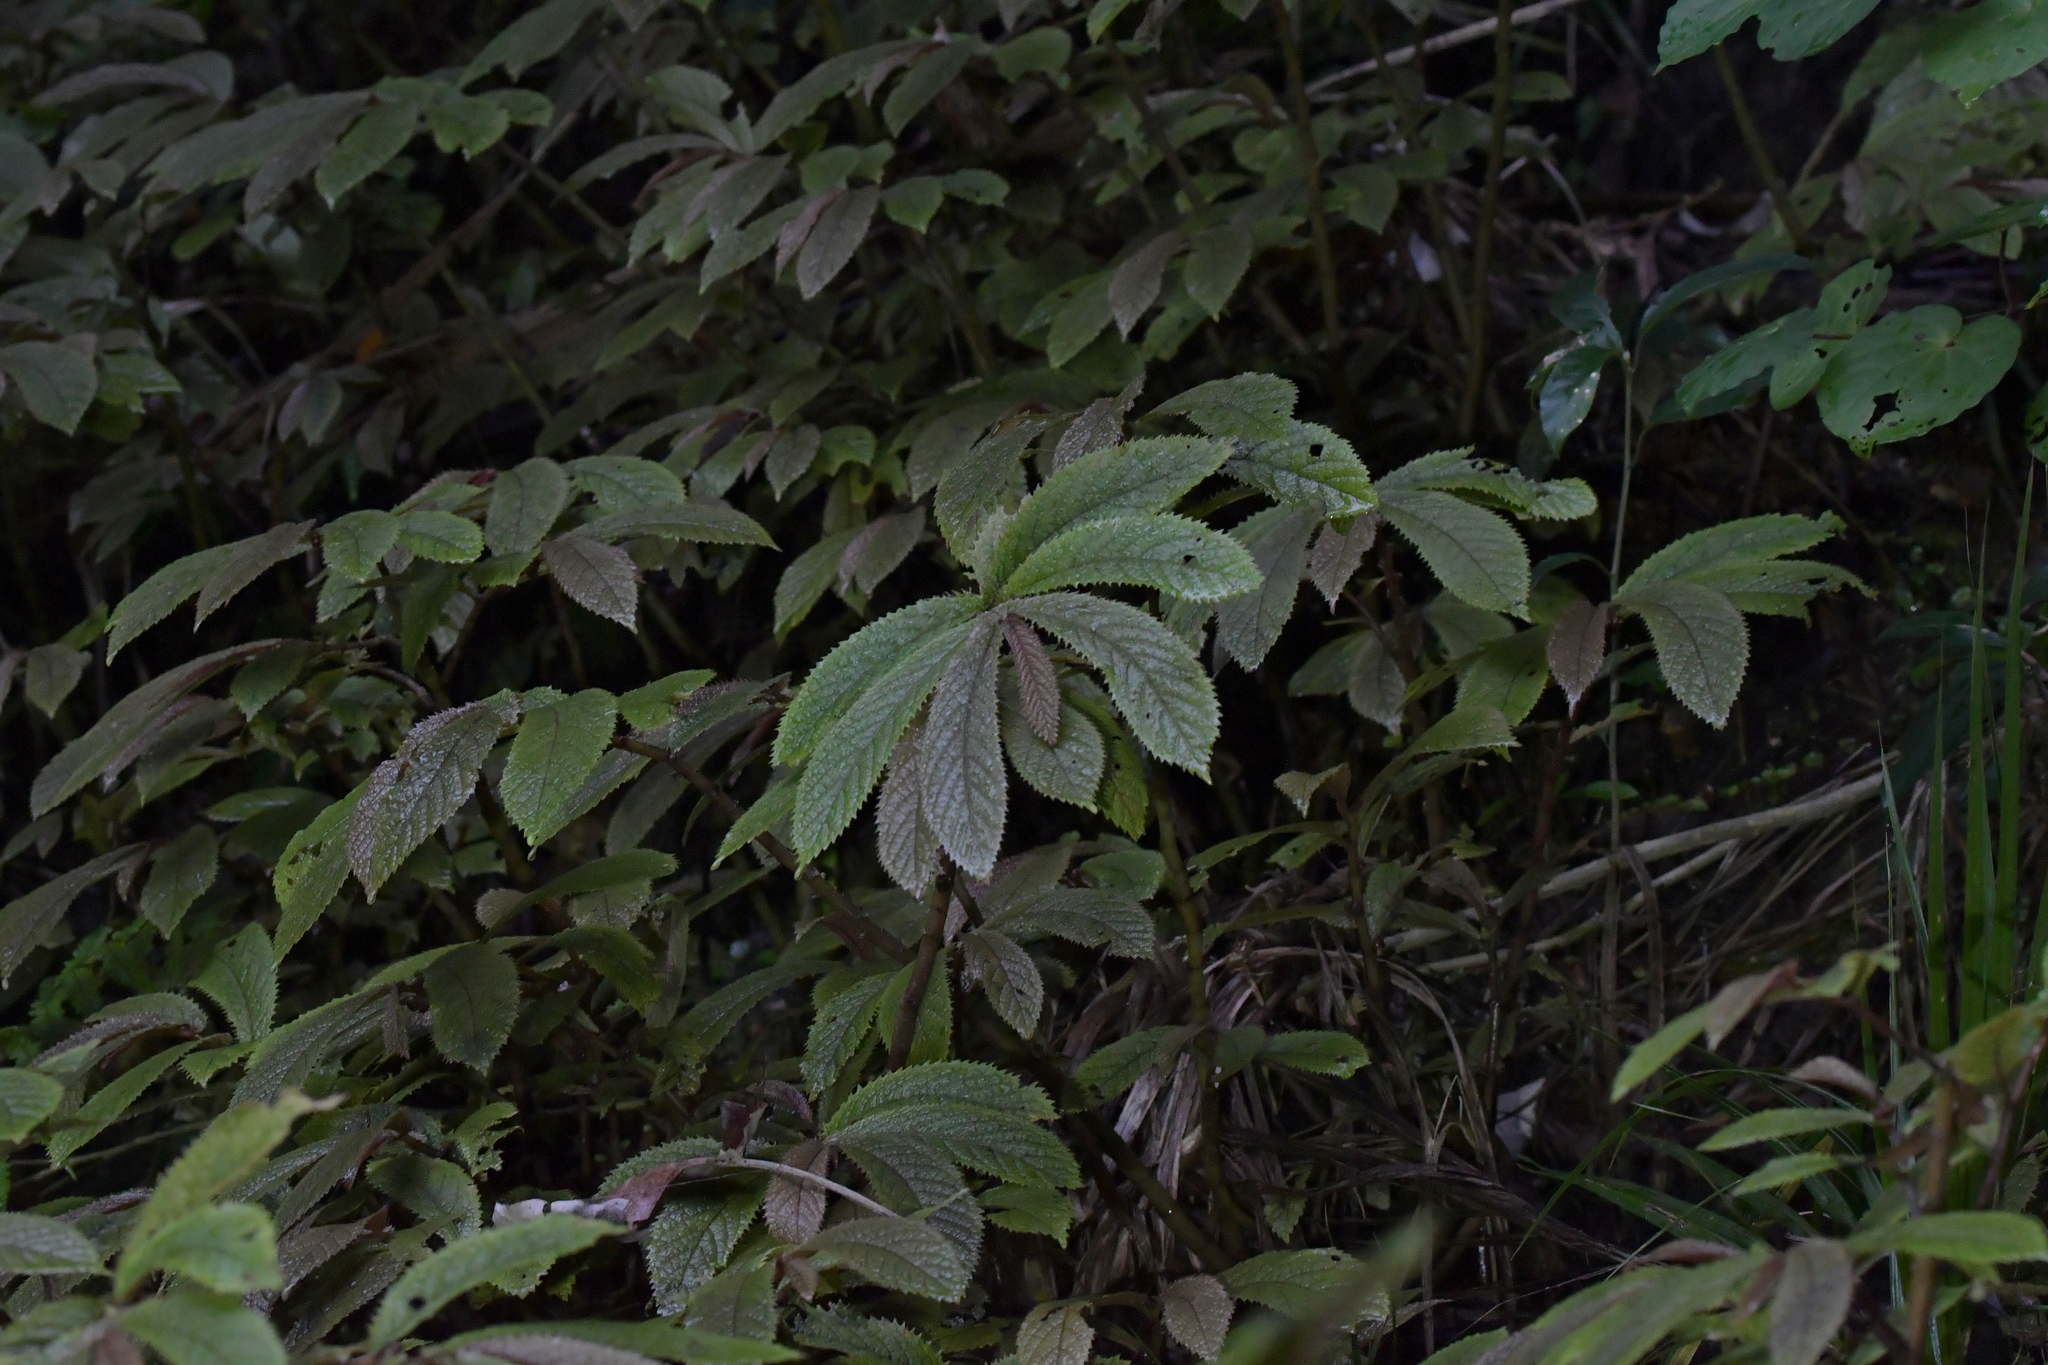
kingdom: Plantae
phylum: Tracheophyta
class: Magnoliopsida
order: Rosales
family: Urticaceae
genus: Elatostema
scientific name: Elatostema rugosum
